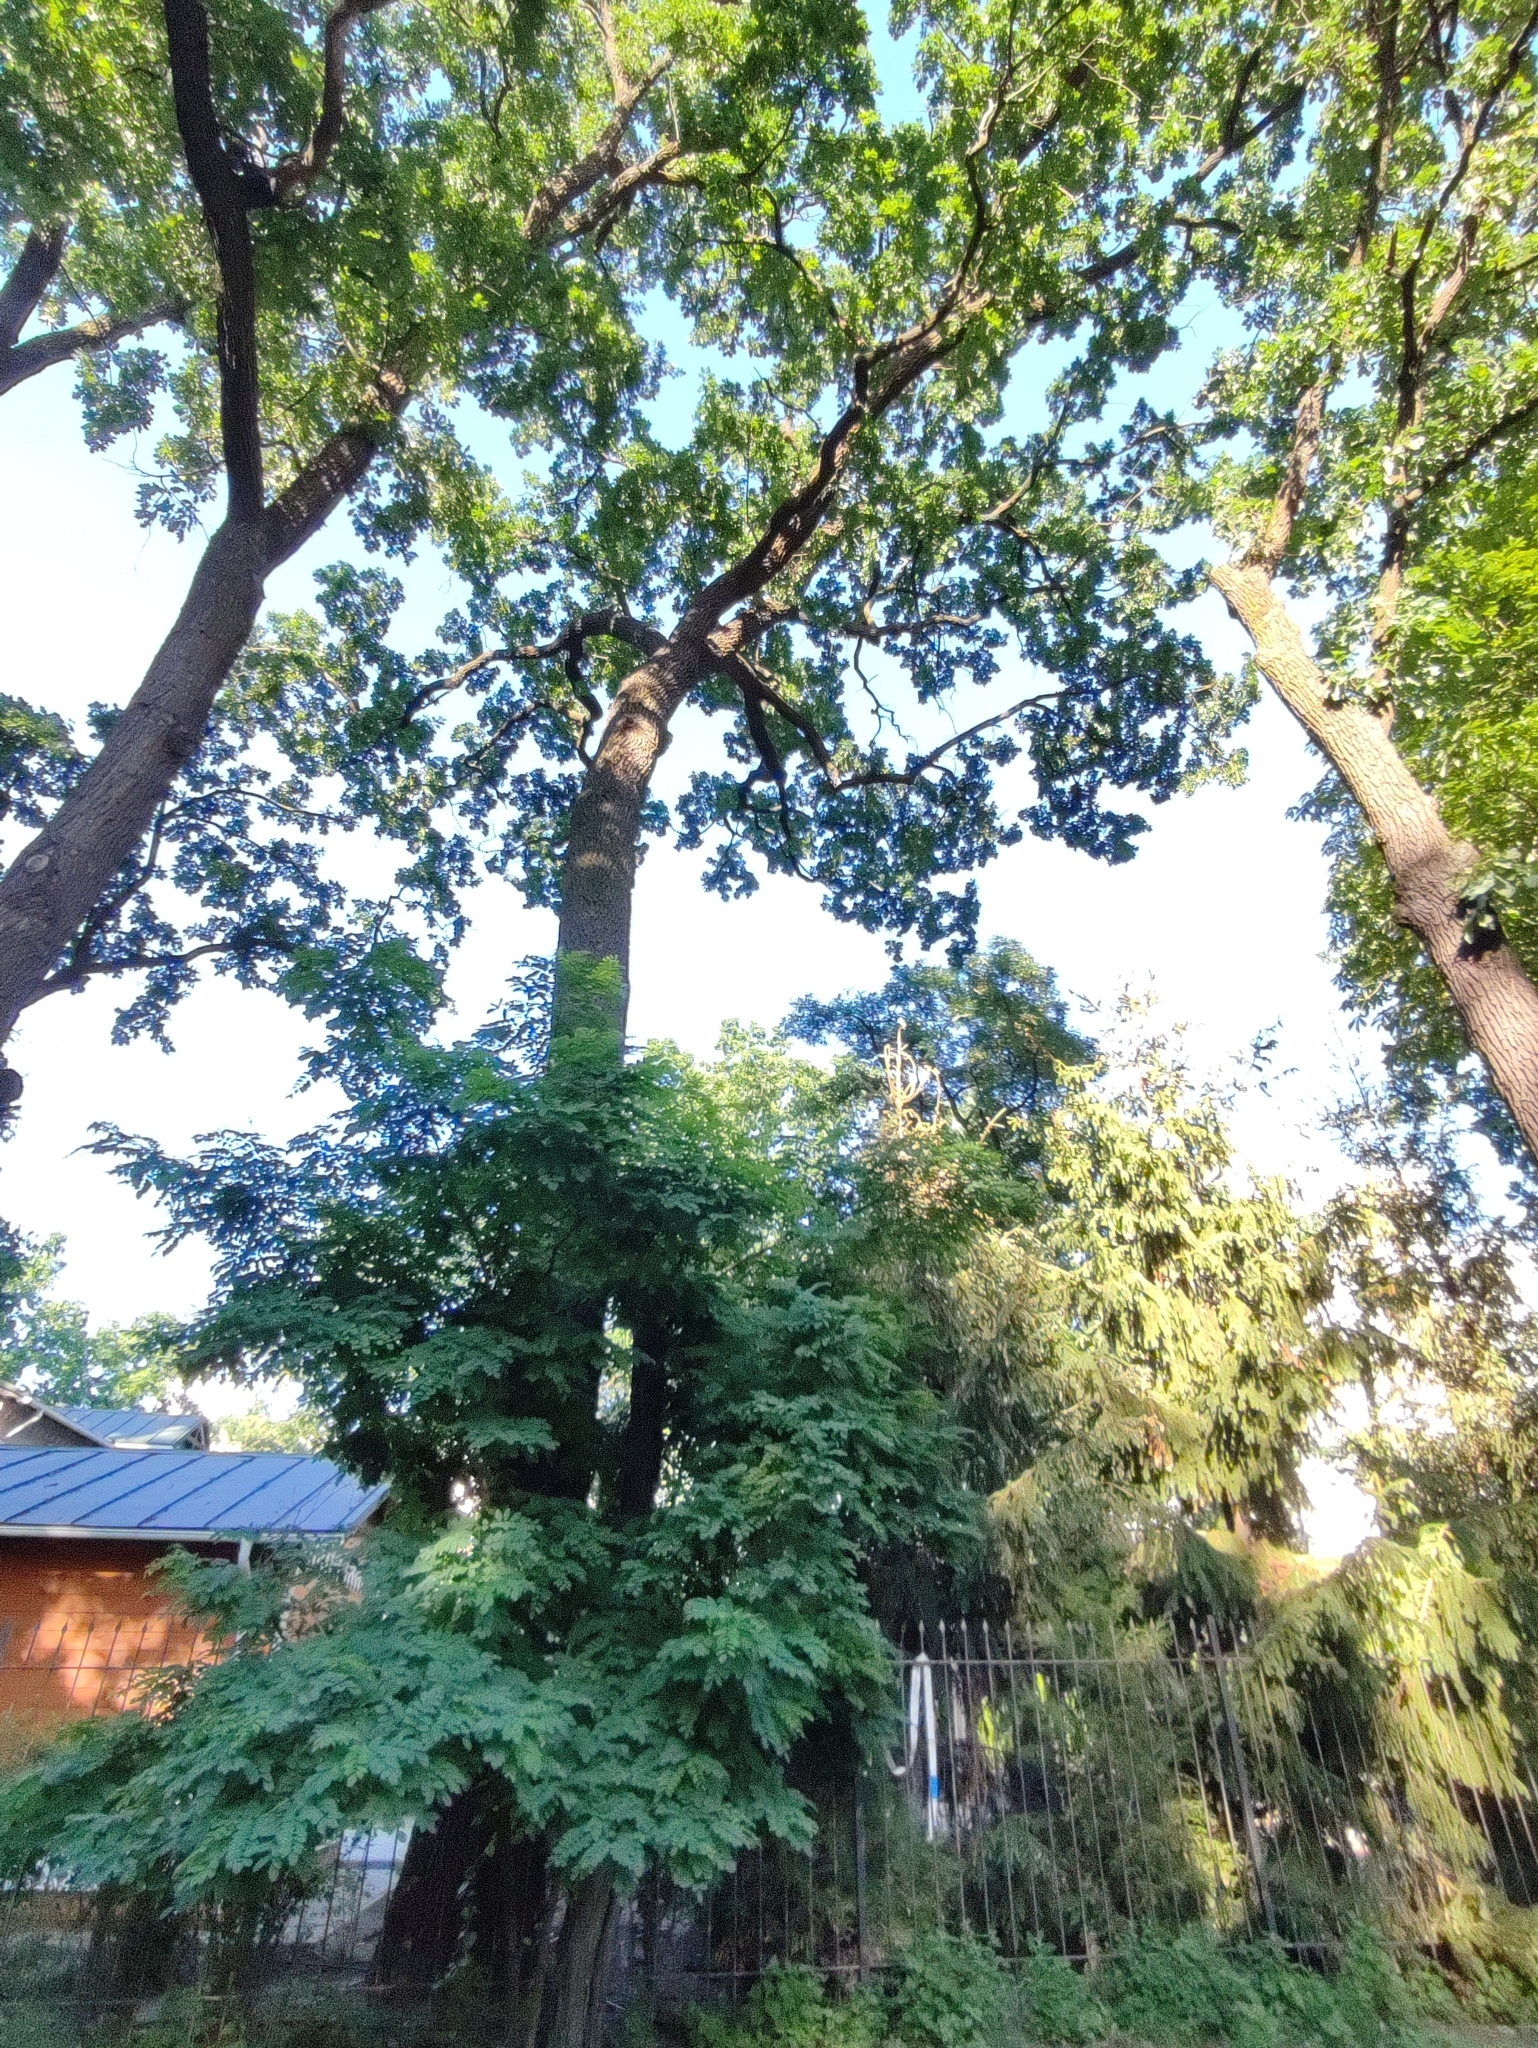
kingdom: Plantae
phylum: Tracheophyta
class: Magnoliopsida
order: Fagales
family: Fagaceae
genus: Quercus
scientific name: Quercus robur
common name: Pedunculate oak
